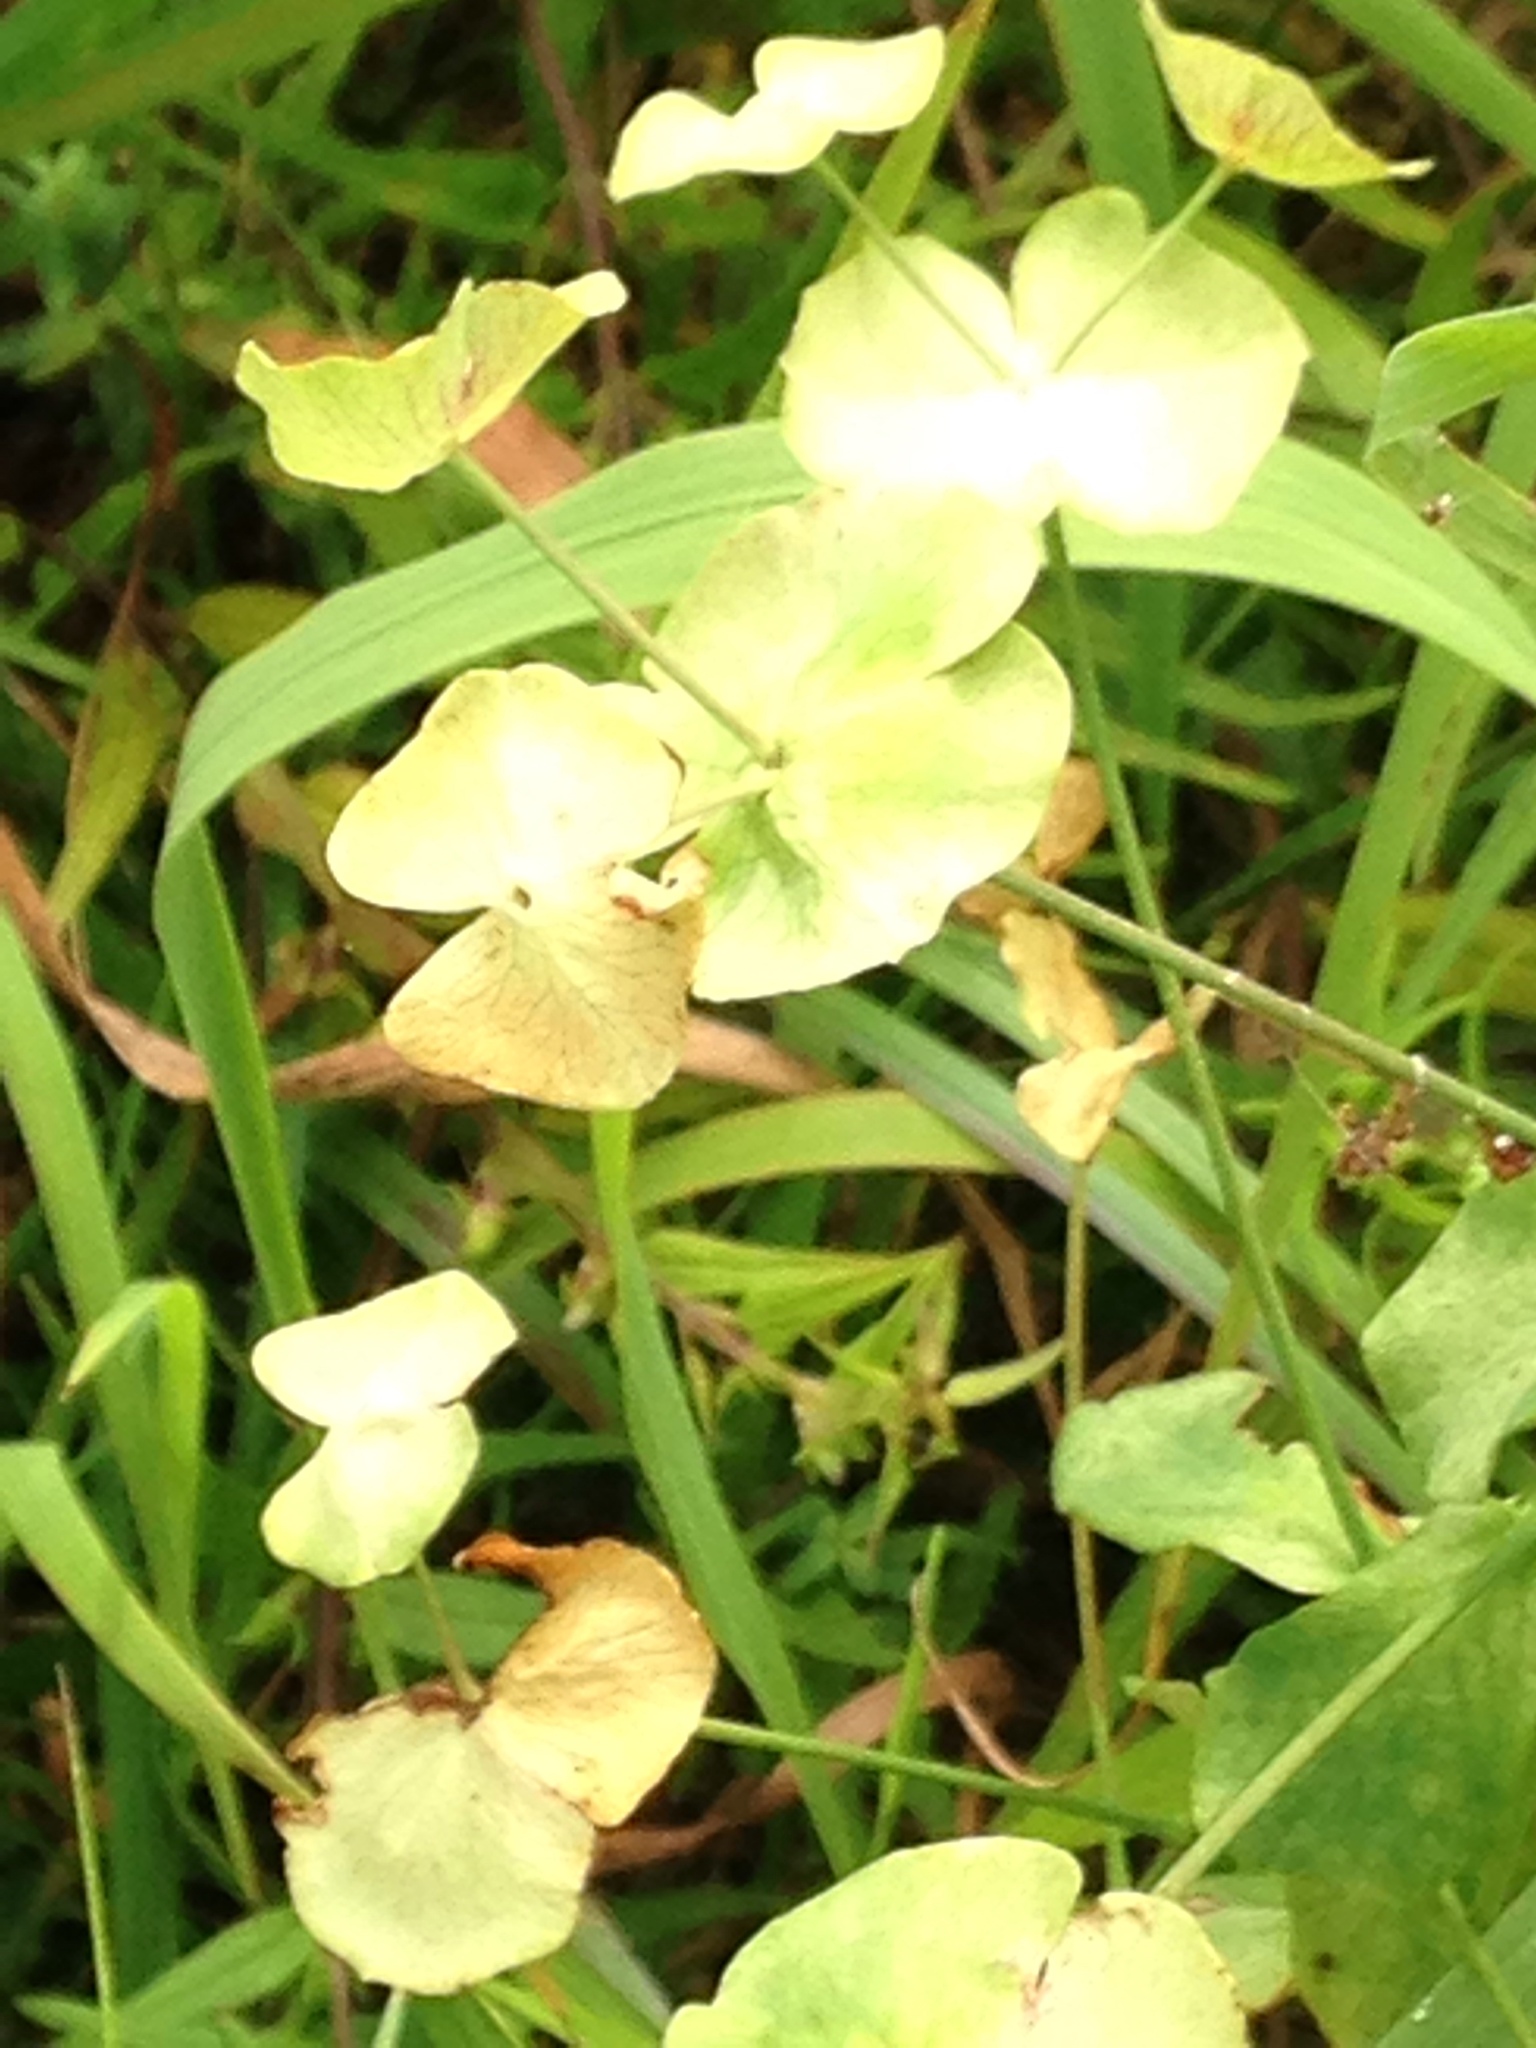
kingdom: Plantae
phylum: Tracheophyta
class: Magnoliopsida
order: Malpighiales
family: Euphorbiaceae
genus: Euphorbia
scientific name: Euphorbia amygdaloides
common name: Wood spurge
